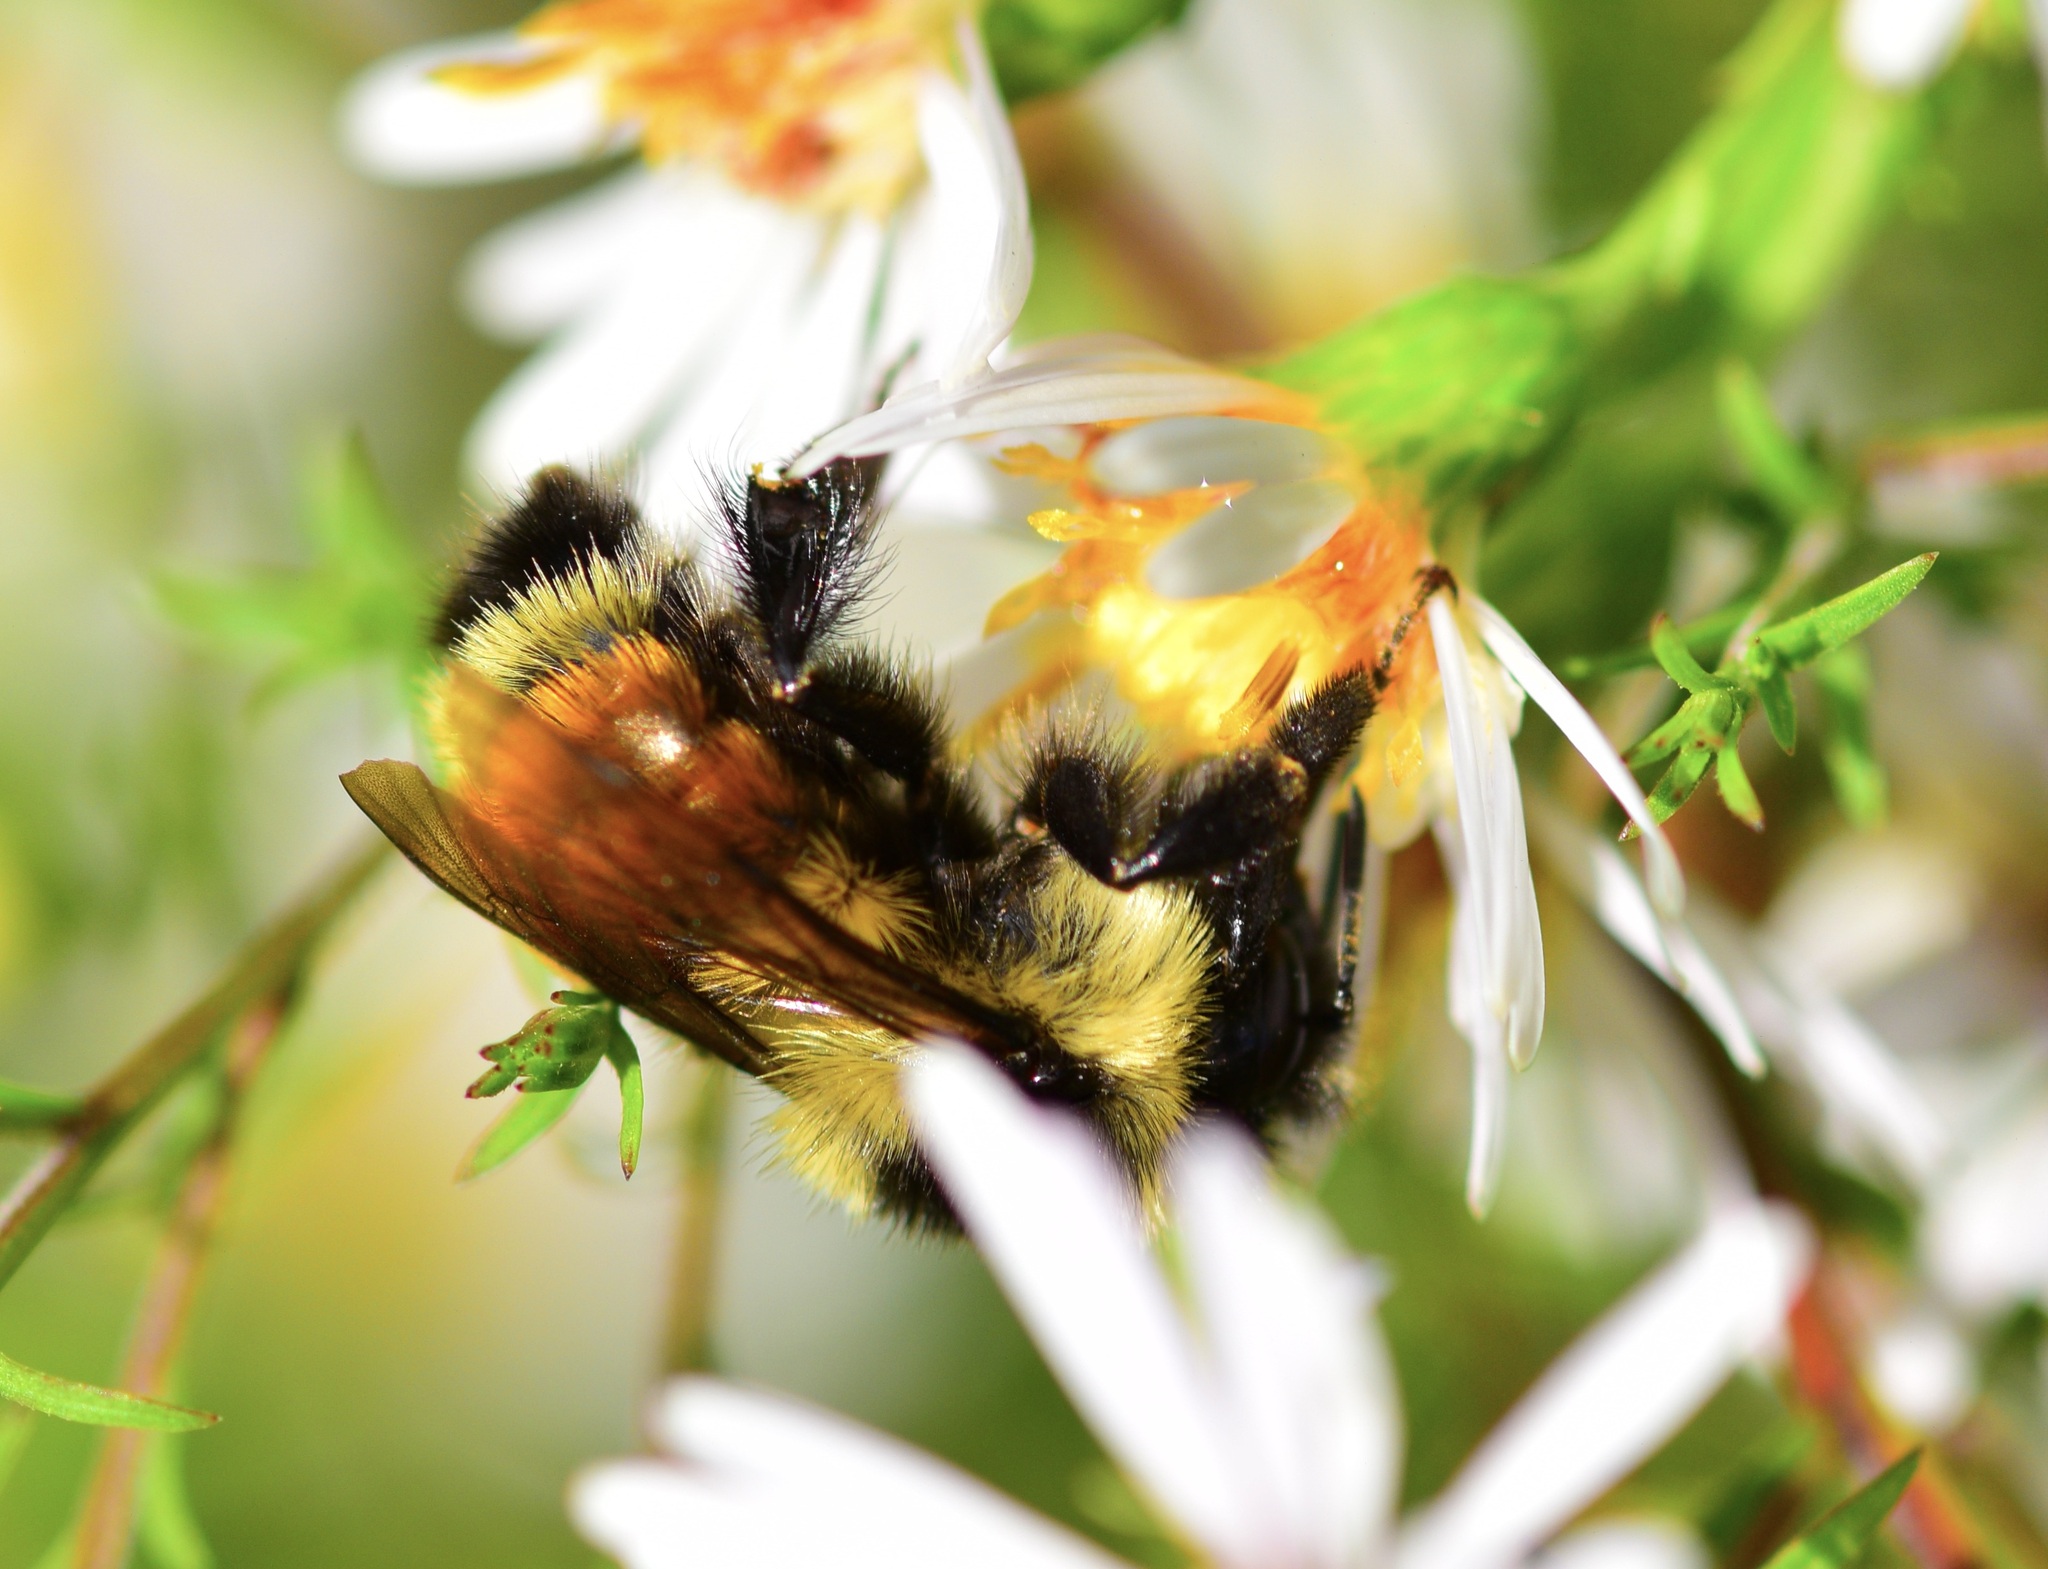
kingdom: Animalia
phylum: Arthropoda
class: Insecta
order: Hymenoptera
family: Apidae
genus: Bombus
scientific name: Bombus ternarius
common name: Tri-colored bumble bee
